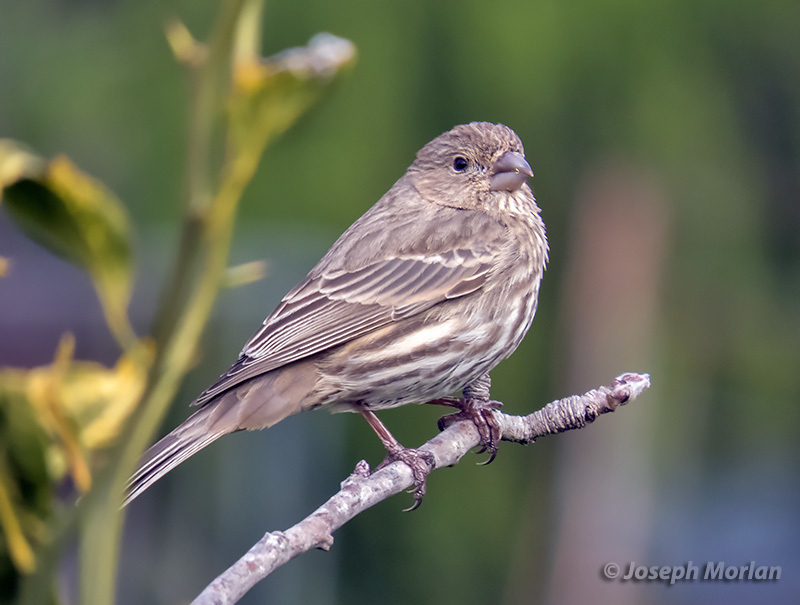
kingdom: Animalia
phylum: Chordata
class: Aves
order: Passeriformes
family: Fringillidae
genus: Haemorhous
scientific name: Haemorhous mexicanus
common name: House finch
